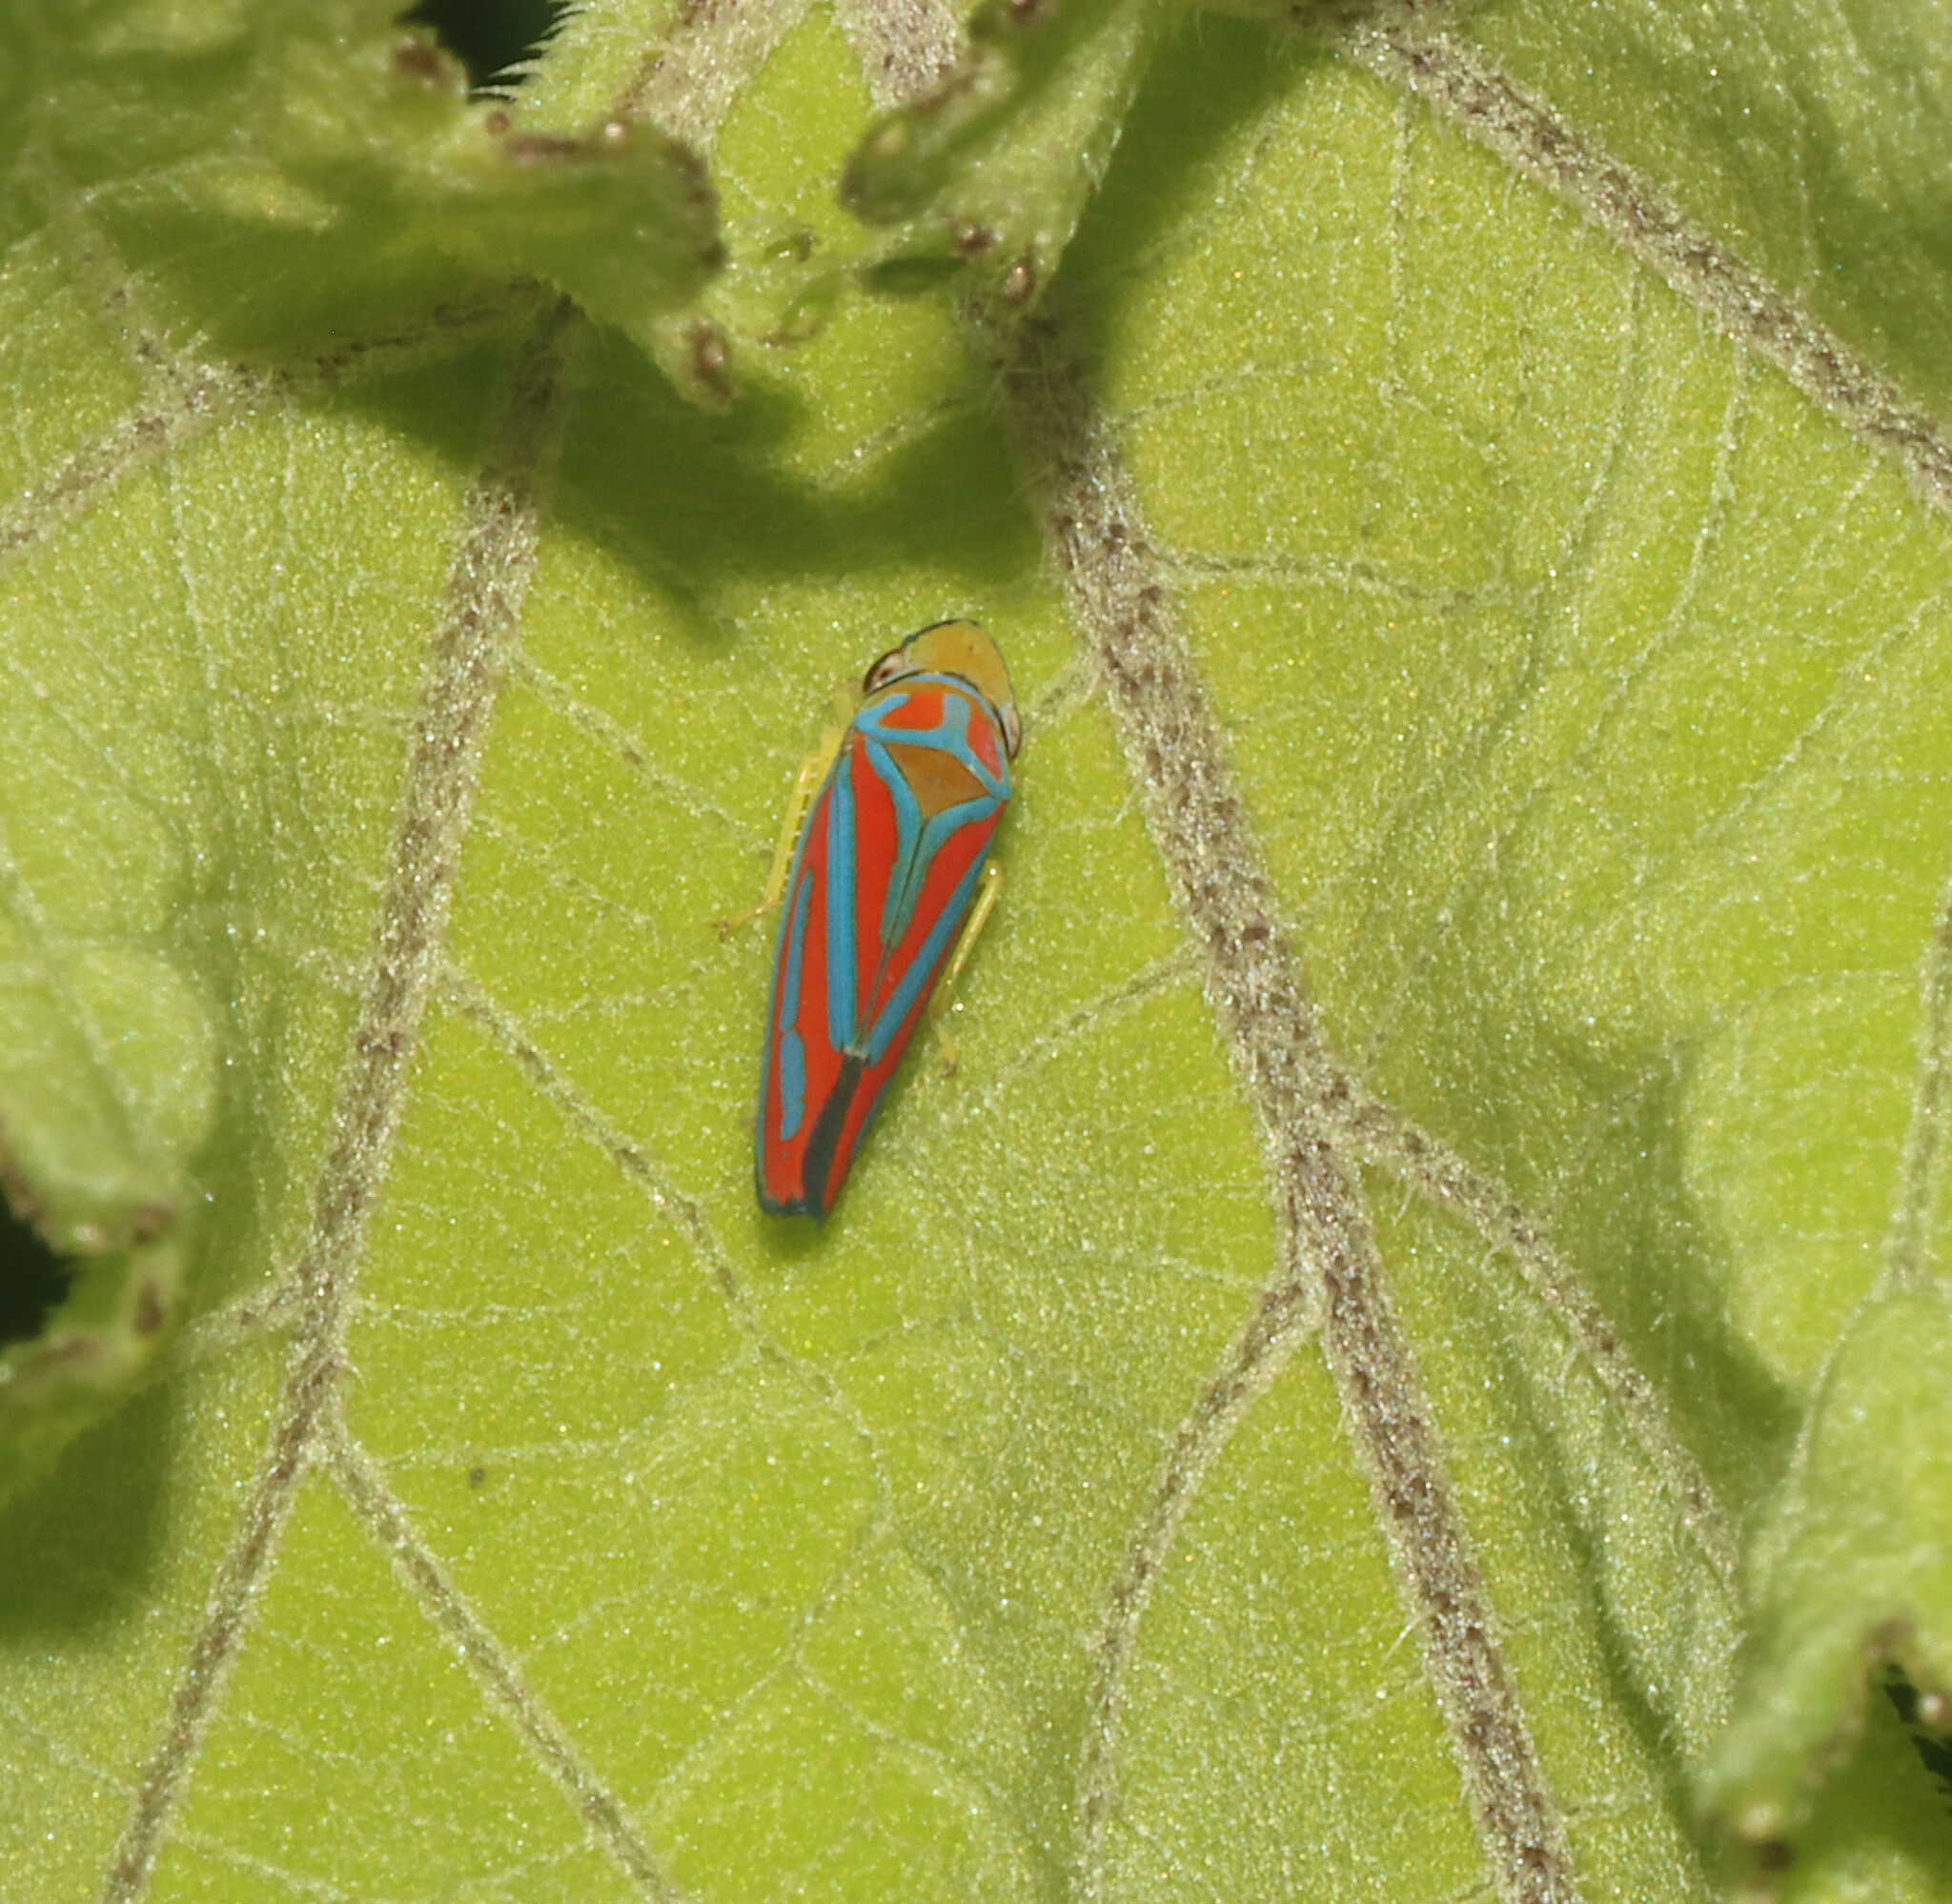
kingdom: Animalia
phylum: Arthropoda
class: Insecta
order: Hemiptera
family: Cicadellidae
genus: Graphocephala
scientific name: Graphocephala coccinea
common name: Candy-striped leafhopper
